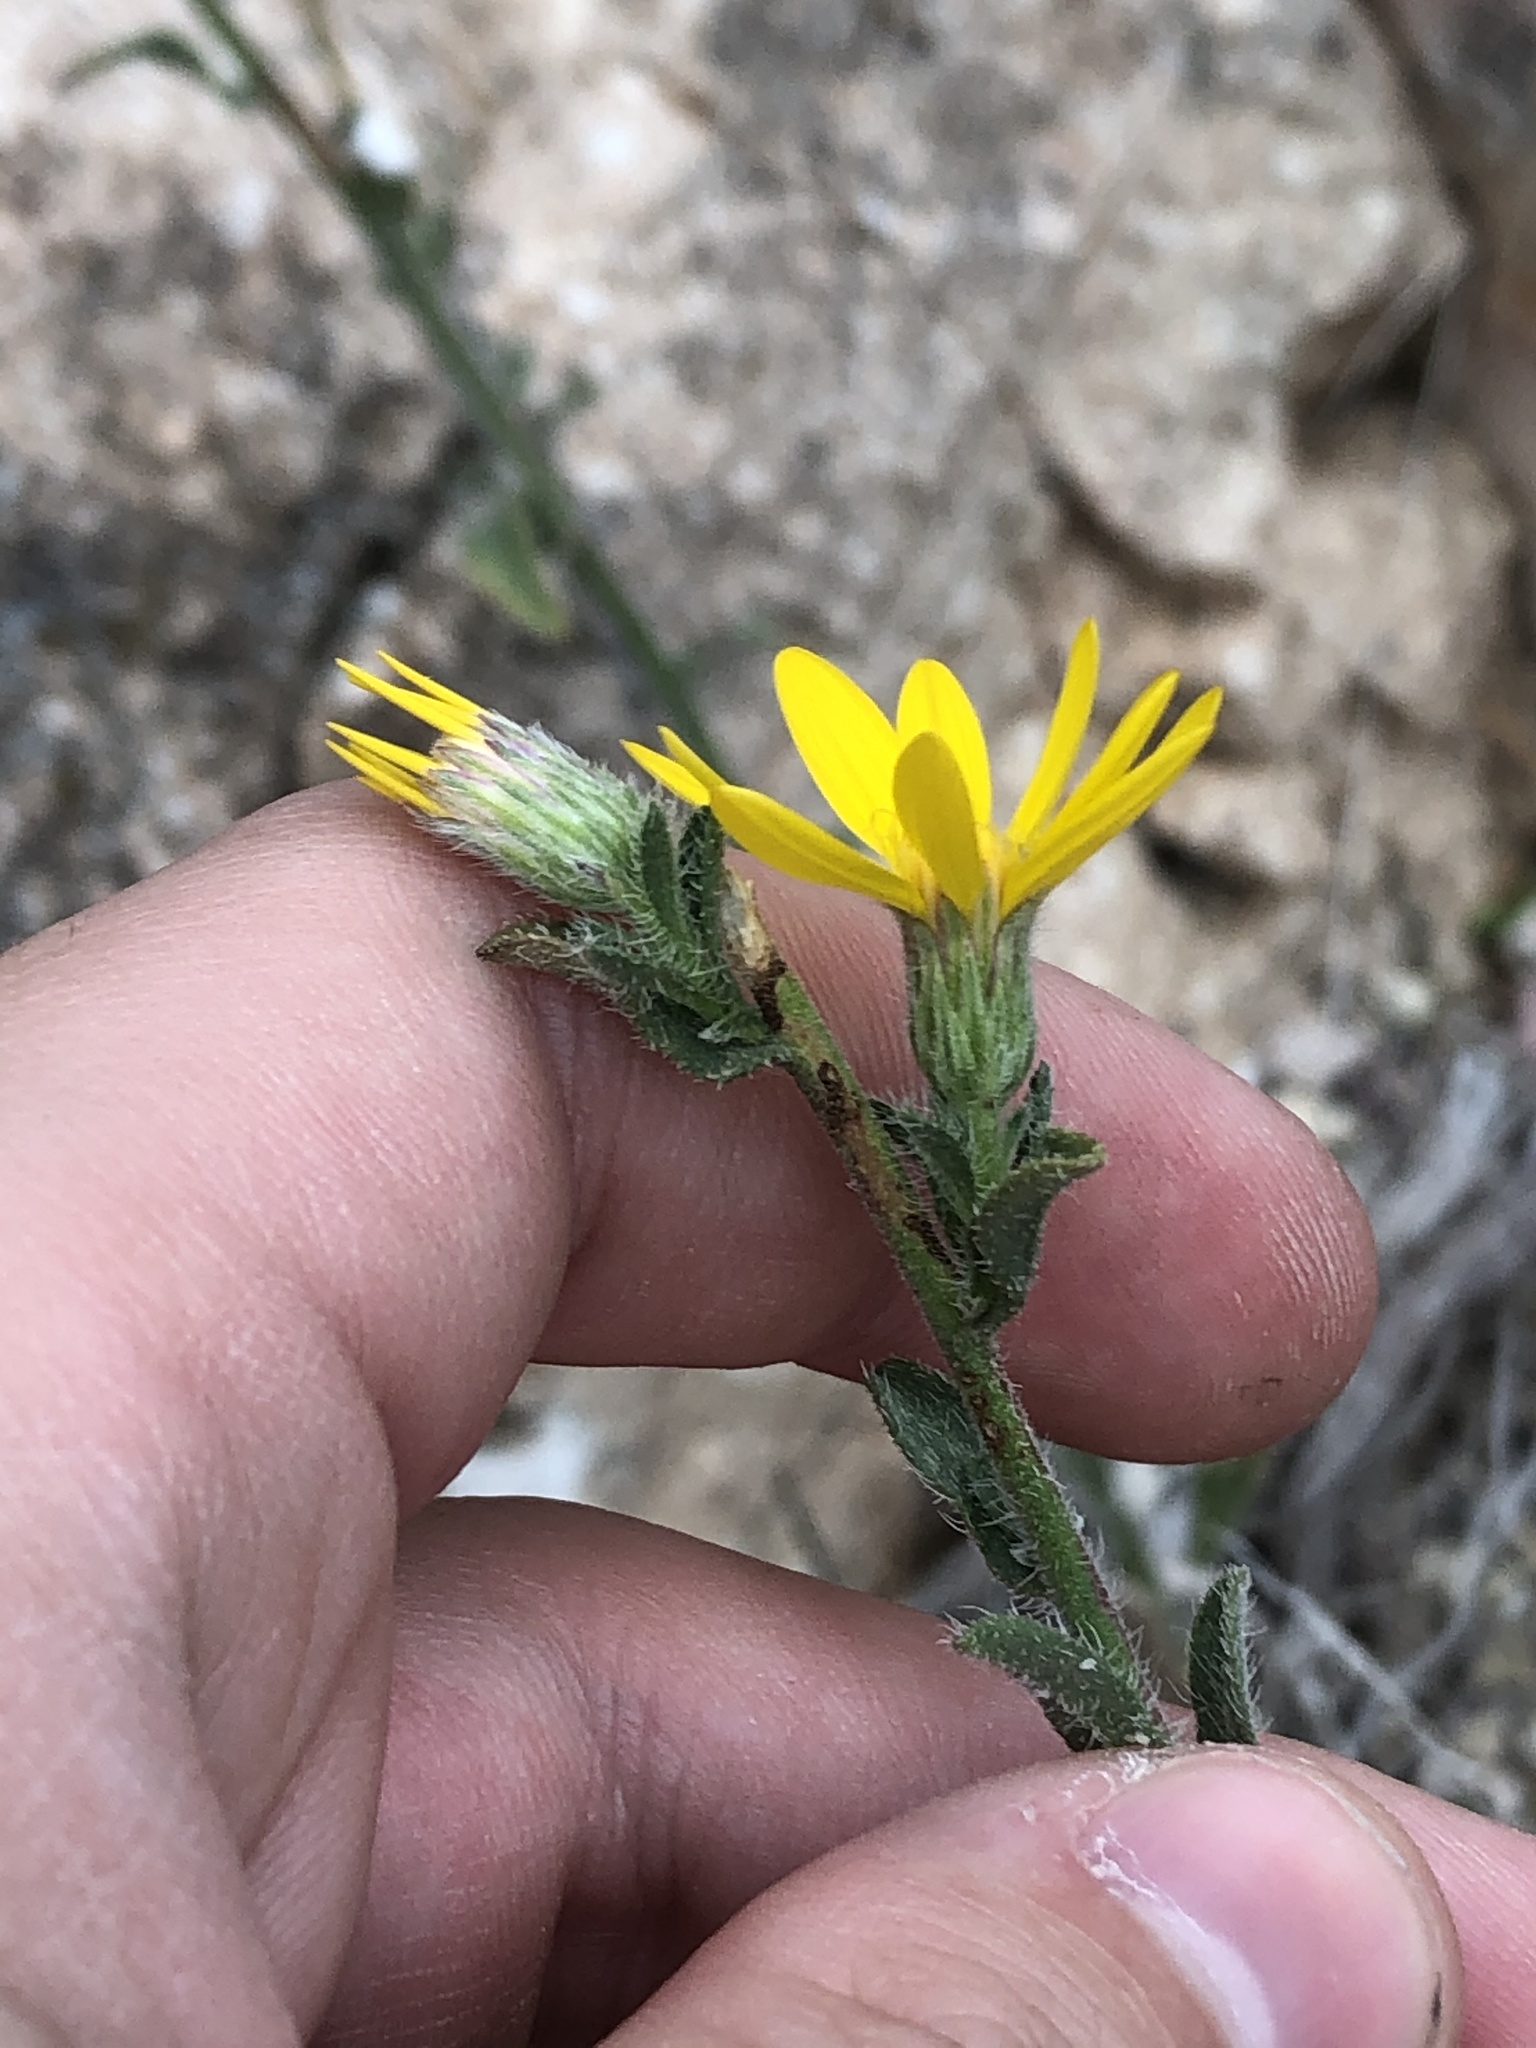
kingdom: Plantae
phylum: Tracheophyta
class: Magnoliopsida
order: Asterales
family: Asteraceae
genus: Heterotheca
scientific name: Heterotheca marginata
